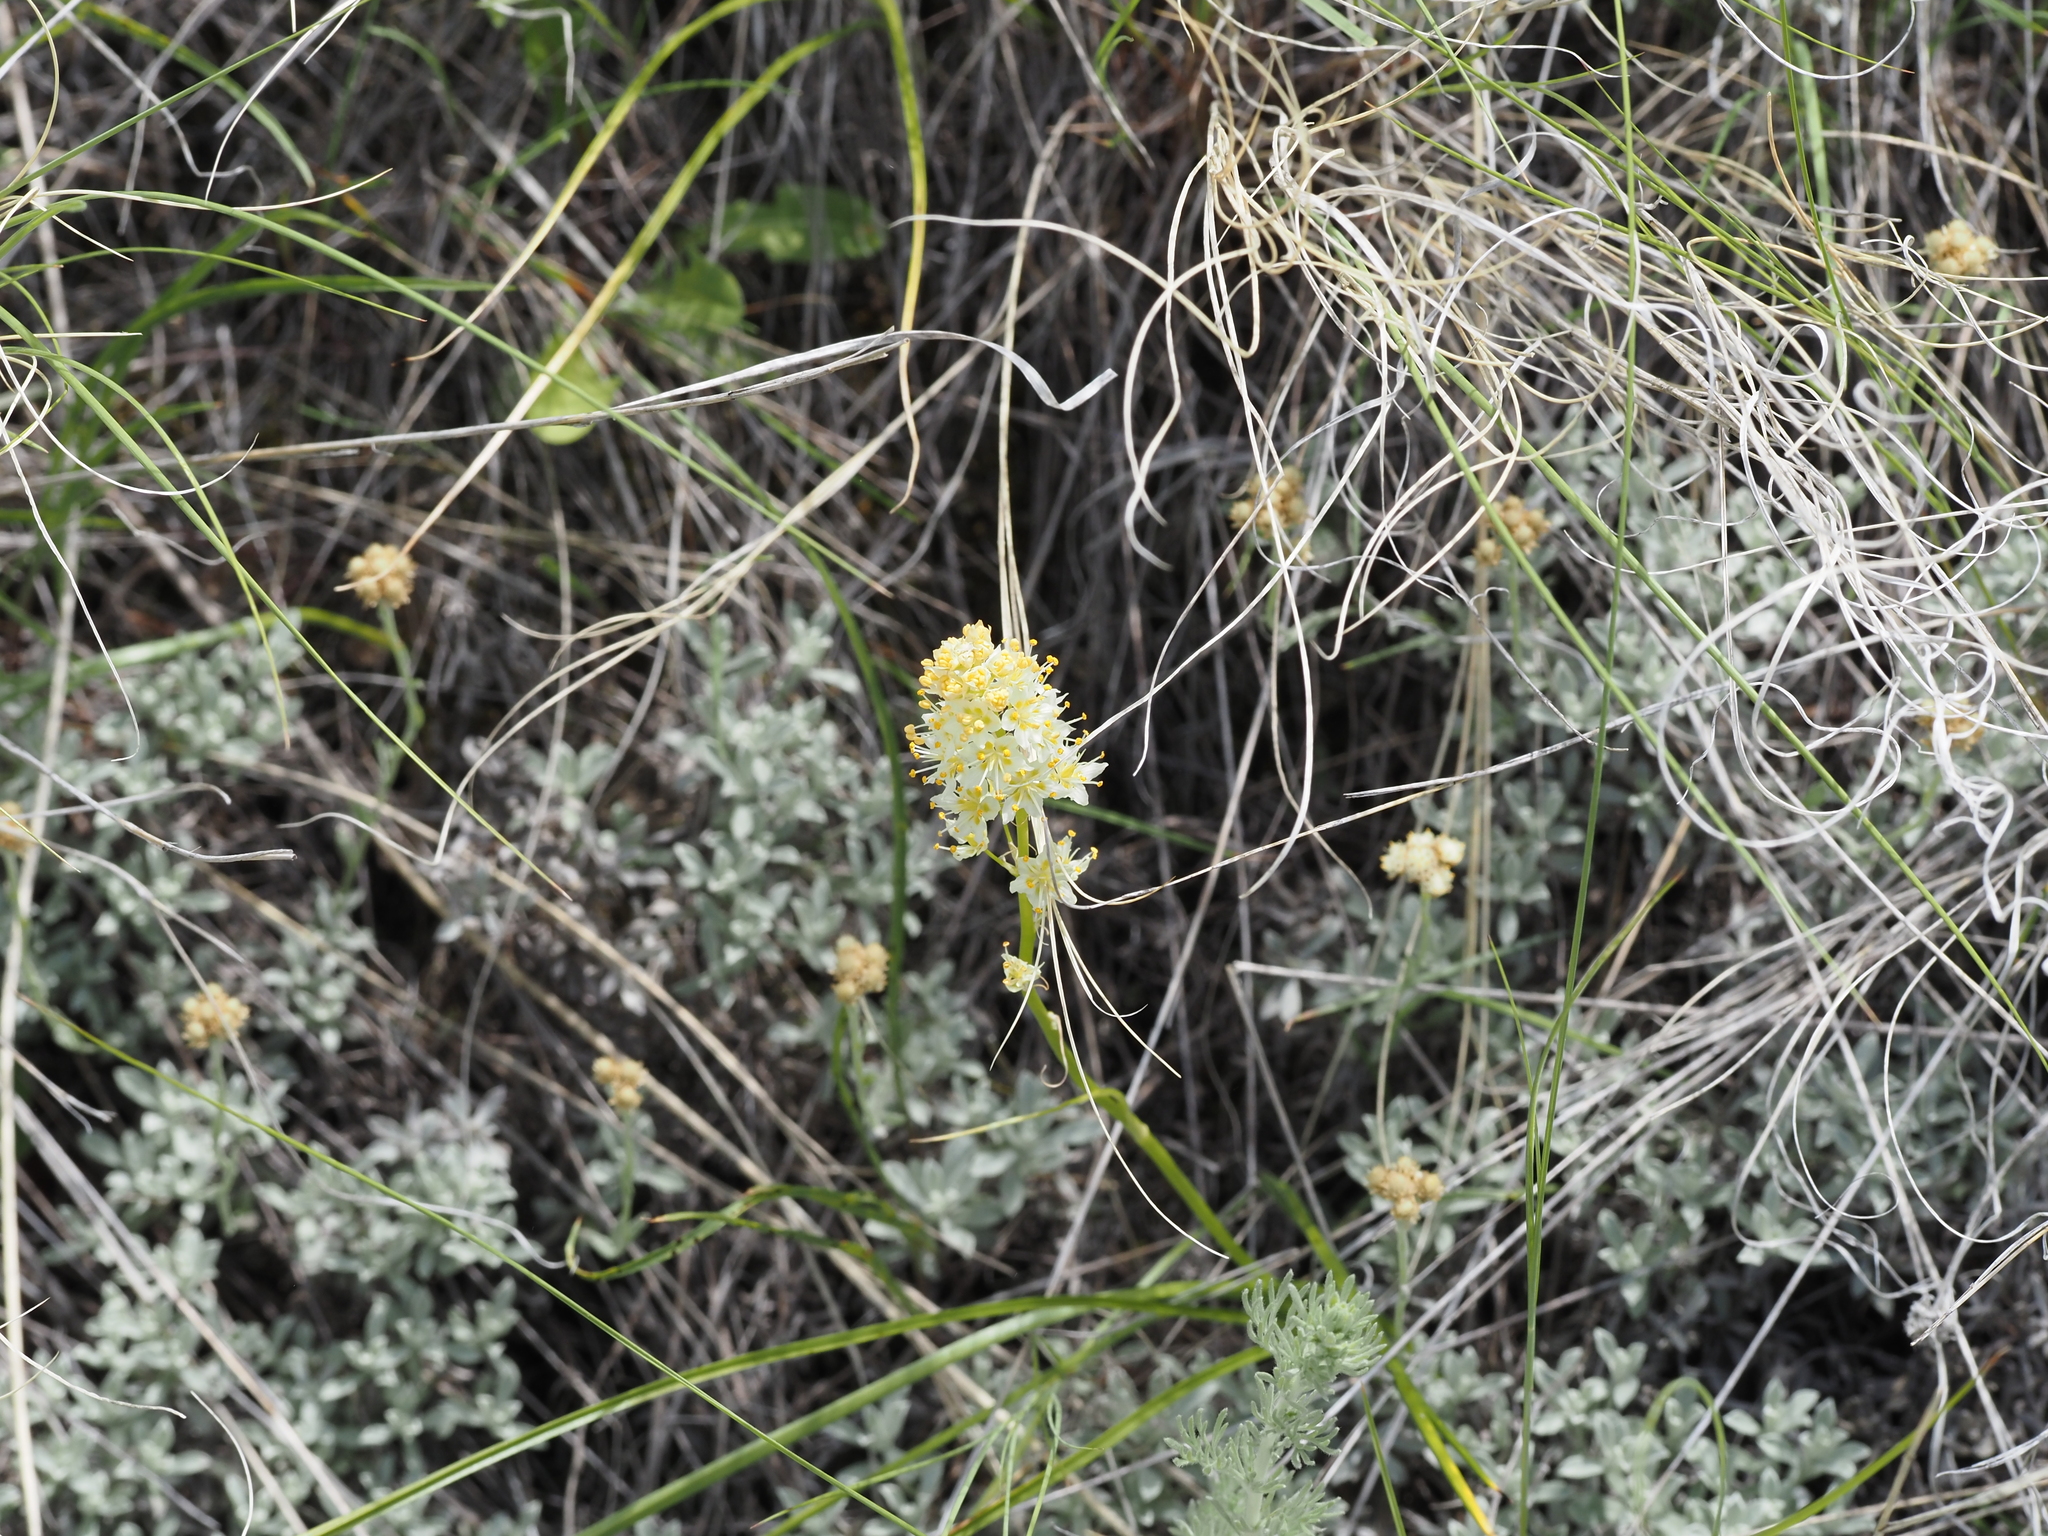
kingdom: Plantae
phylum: Tracheophyta
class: Liliopsida
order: Liliales
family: Melanthiaceae
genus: Toxicoscordion
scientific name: Toxicoscordion venenosum
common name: Meadow death camas
